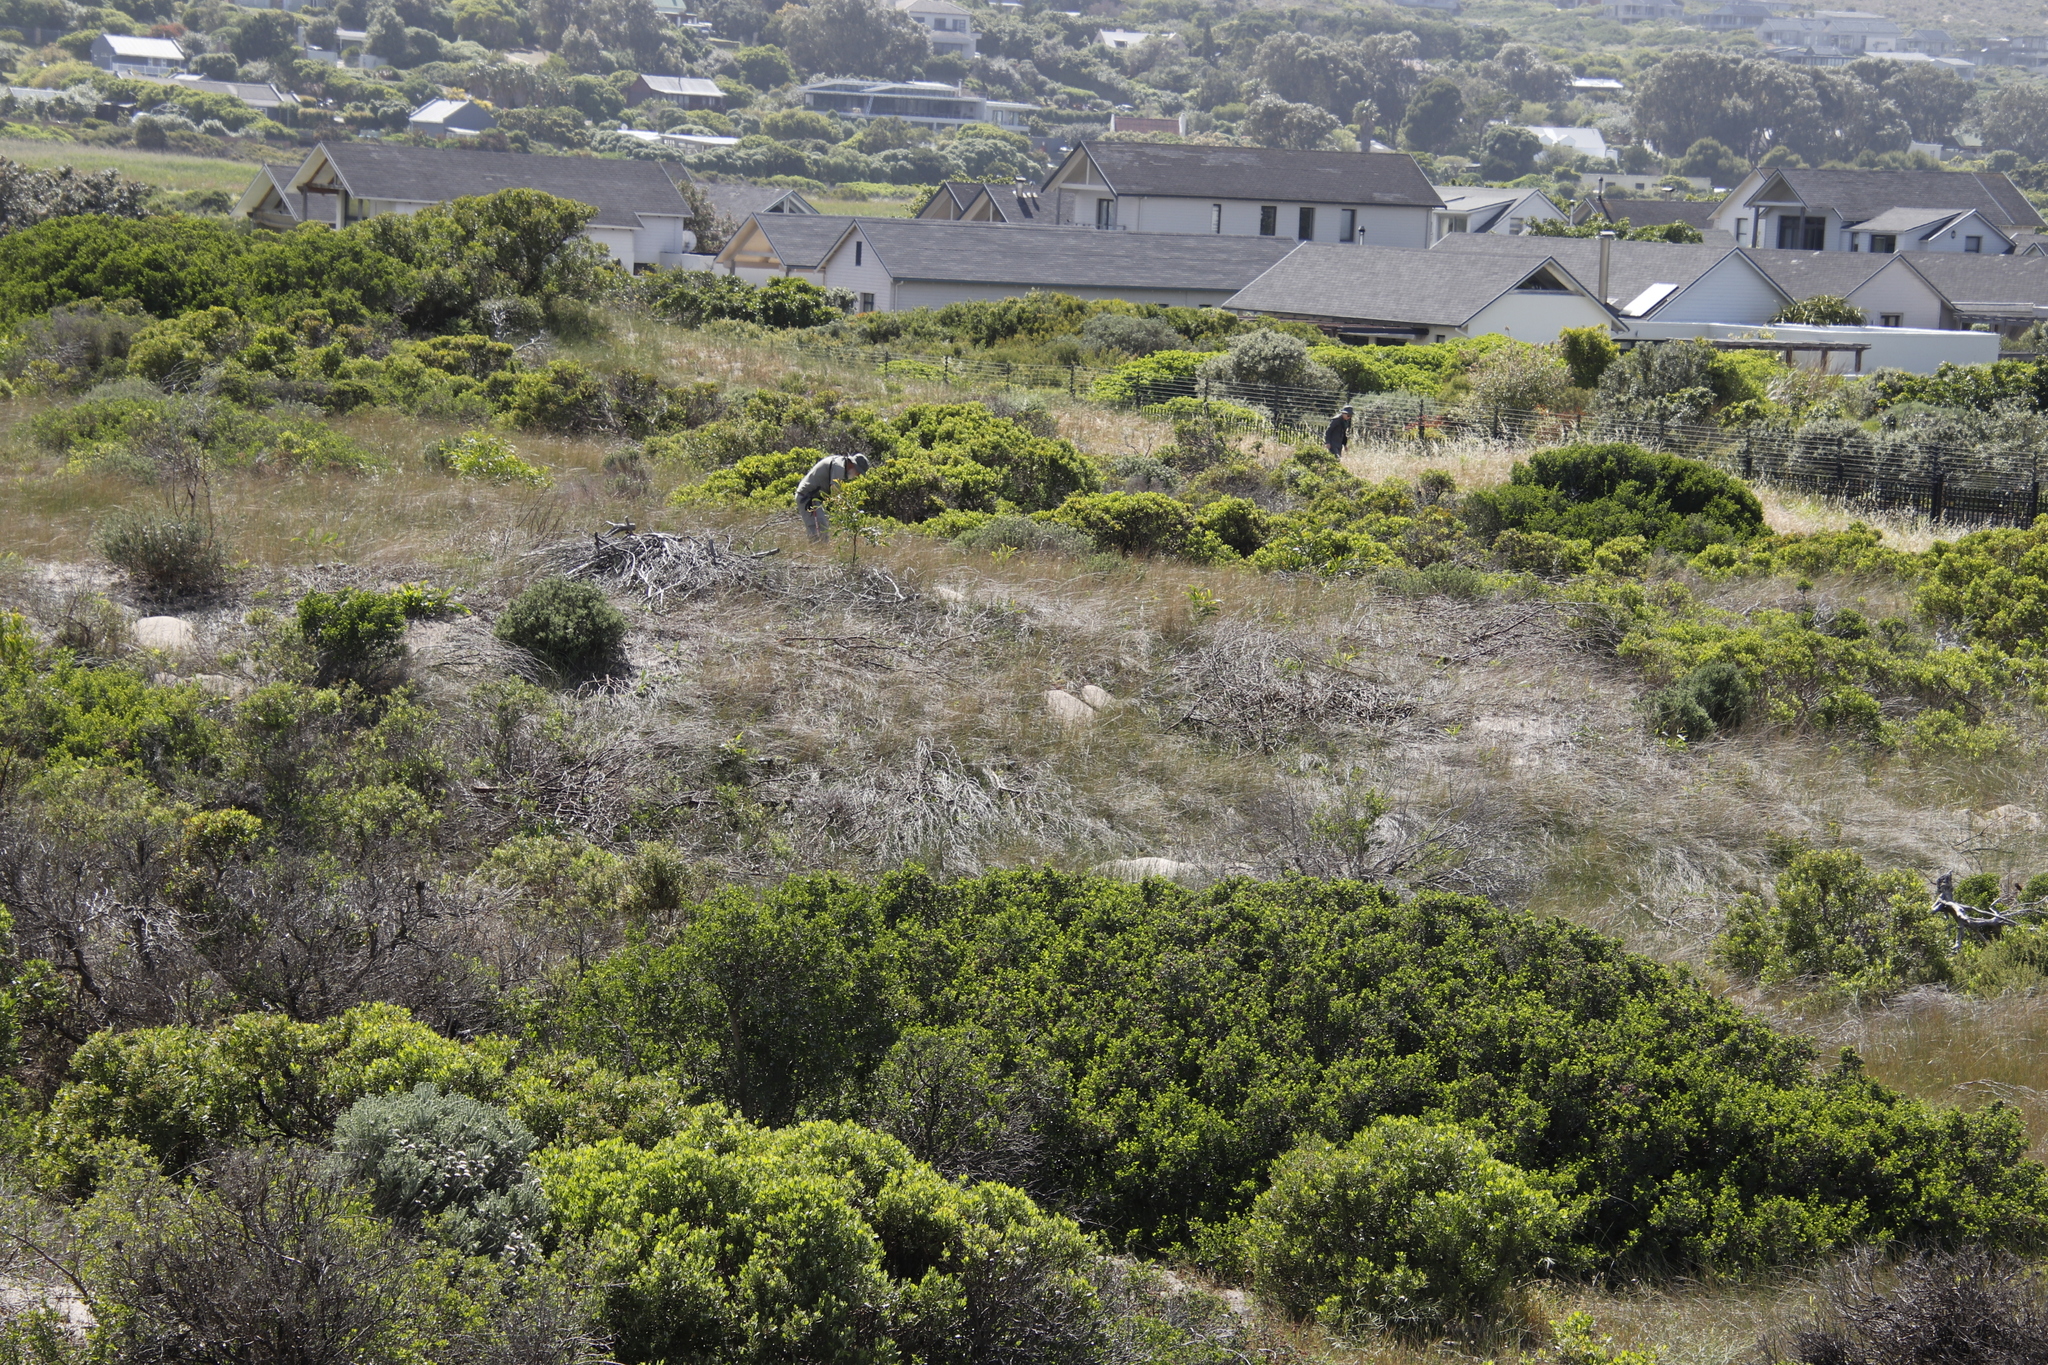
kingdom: Plantae
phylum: Tracheophyta
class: Magnoliopsida
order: Fabales
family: Fabaceae
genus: Acacia
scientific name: Acacia saligna
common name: Orange wattle
